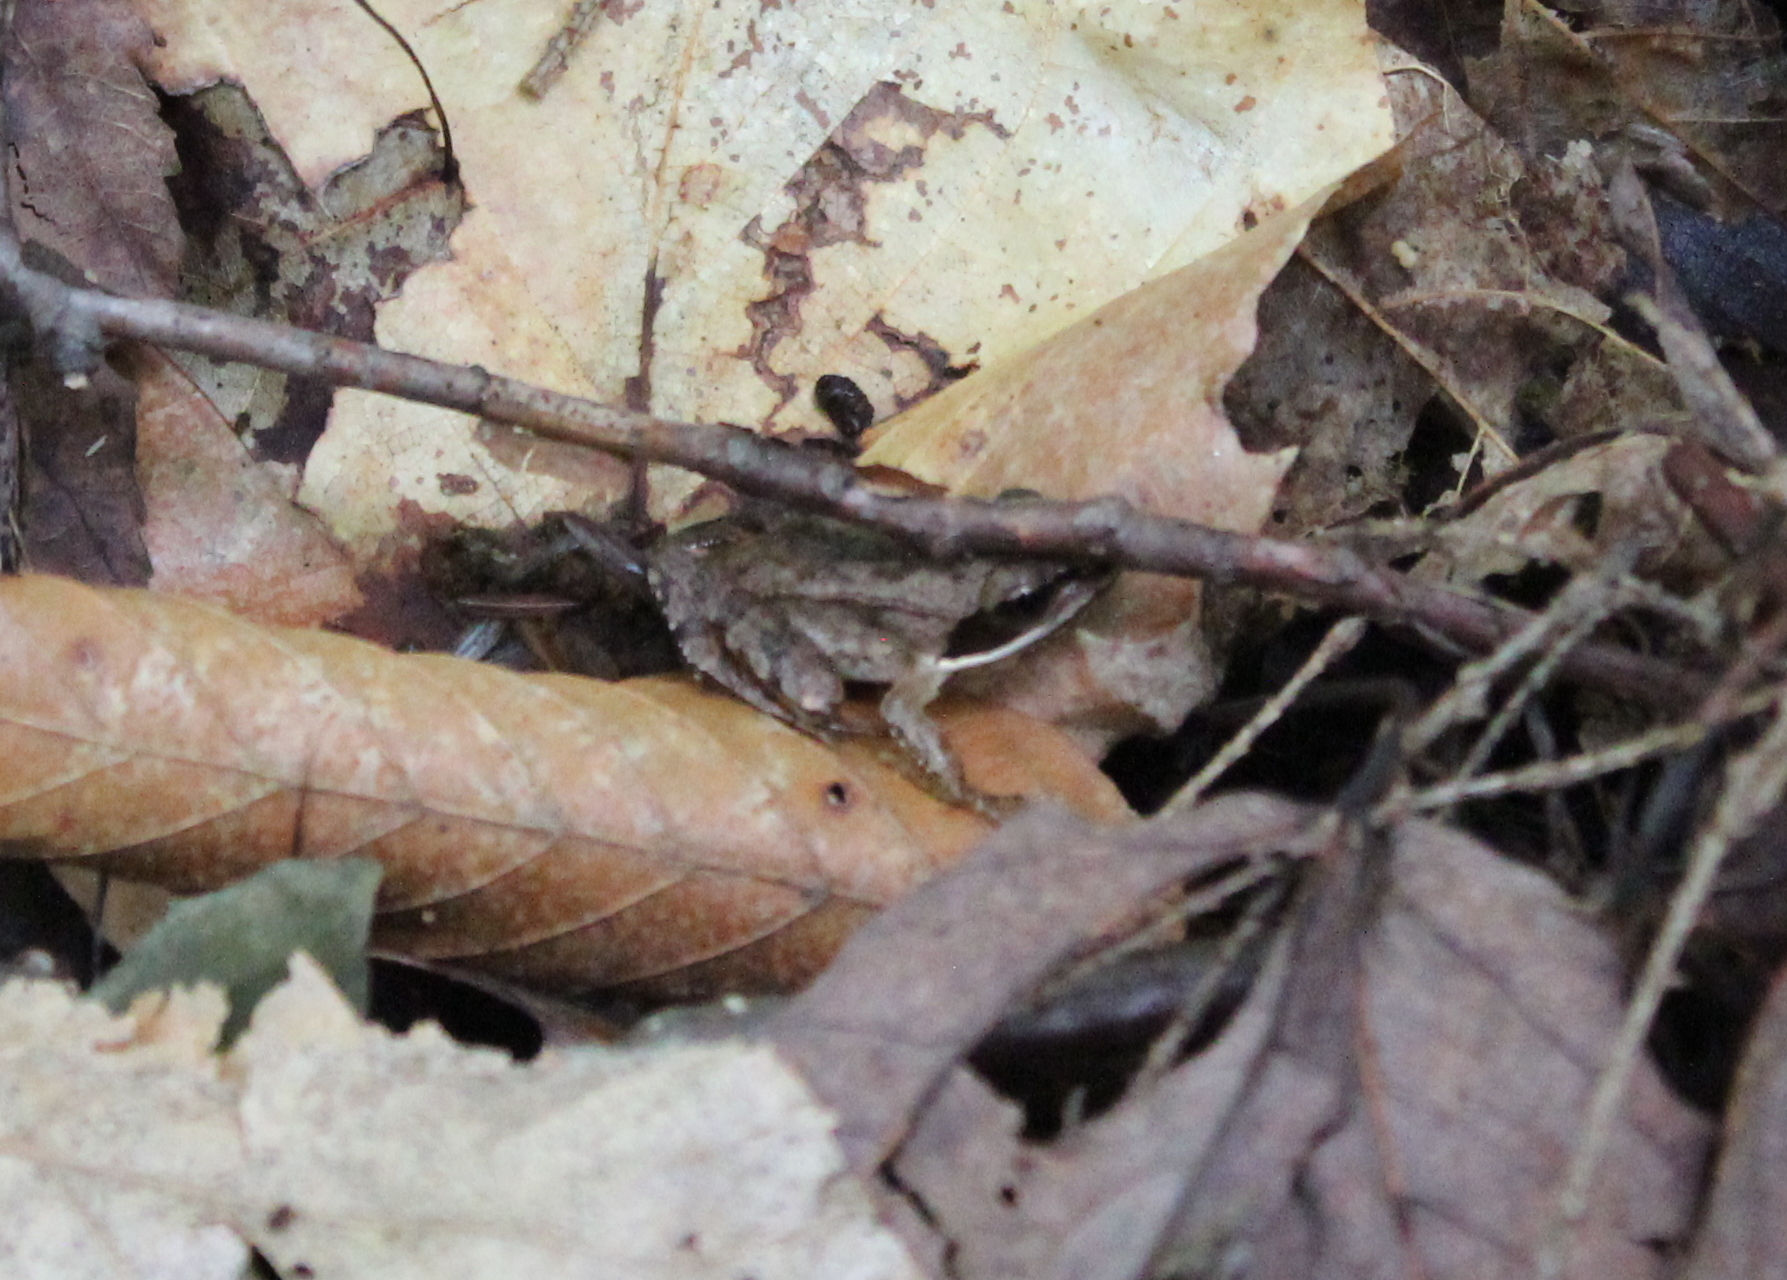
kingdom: Animalia
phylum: Chordata
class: Amphibia
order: Anura
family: Ranidae
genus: Lithobates
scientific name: Lithobates sylvaticus
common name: Wood frog
